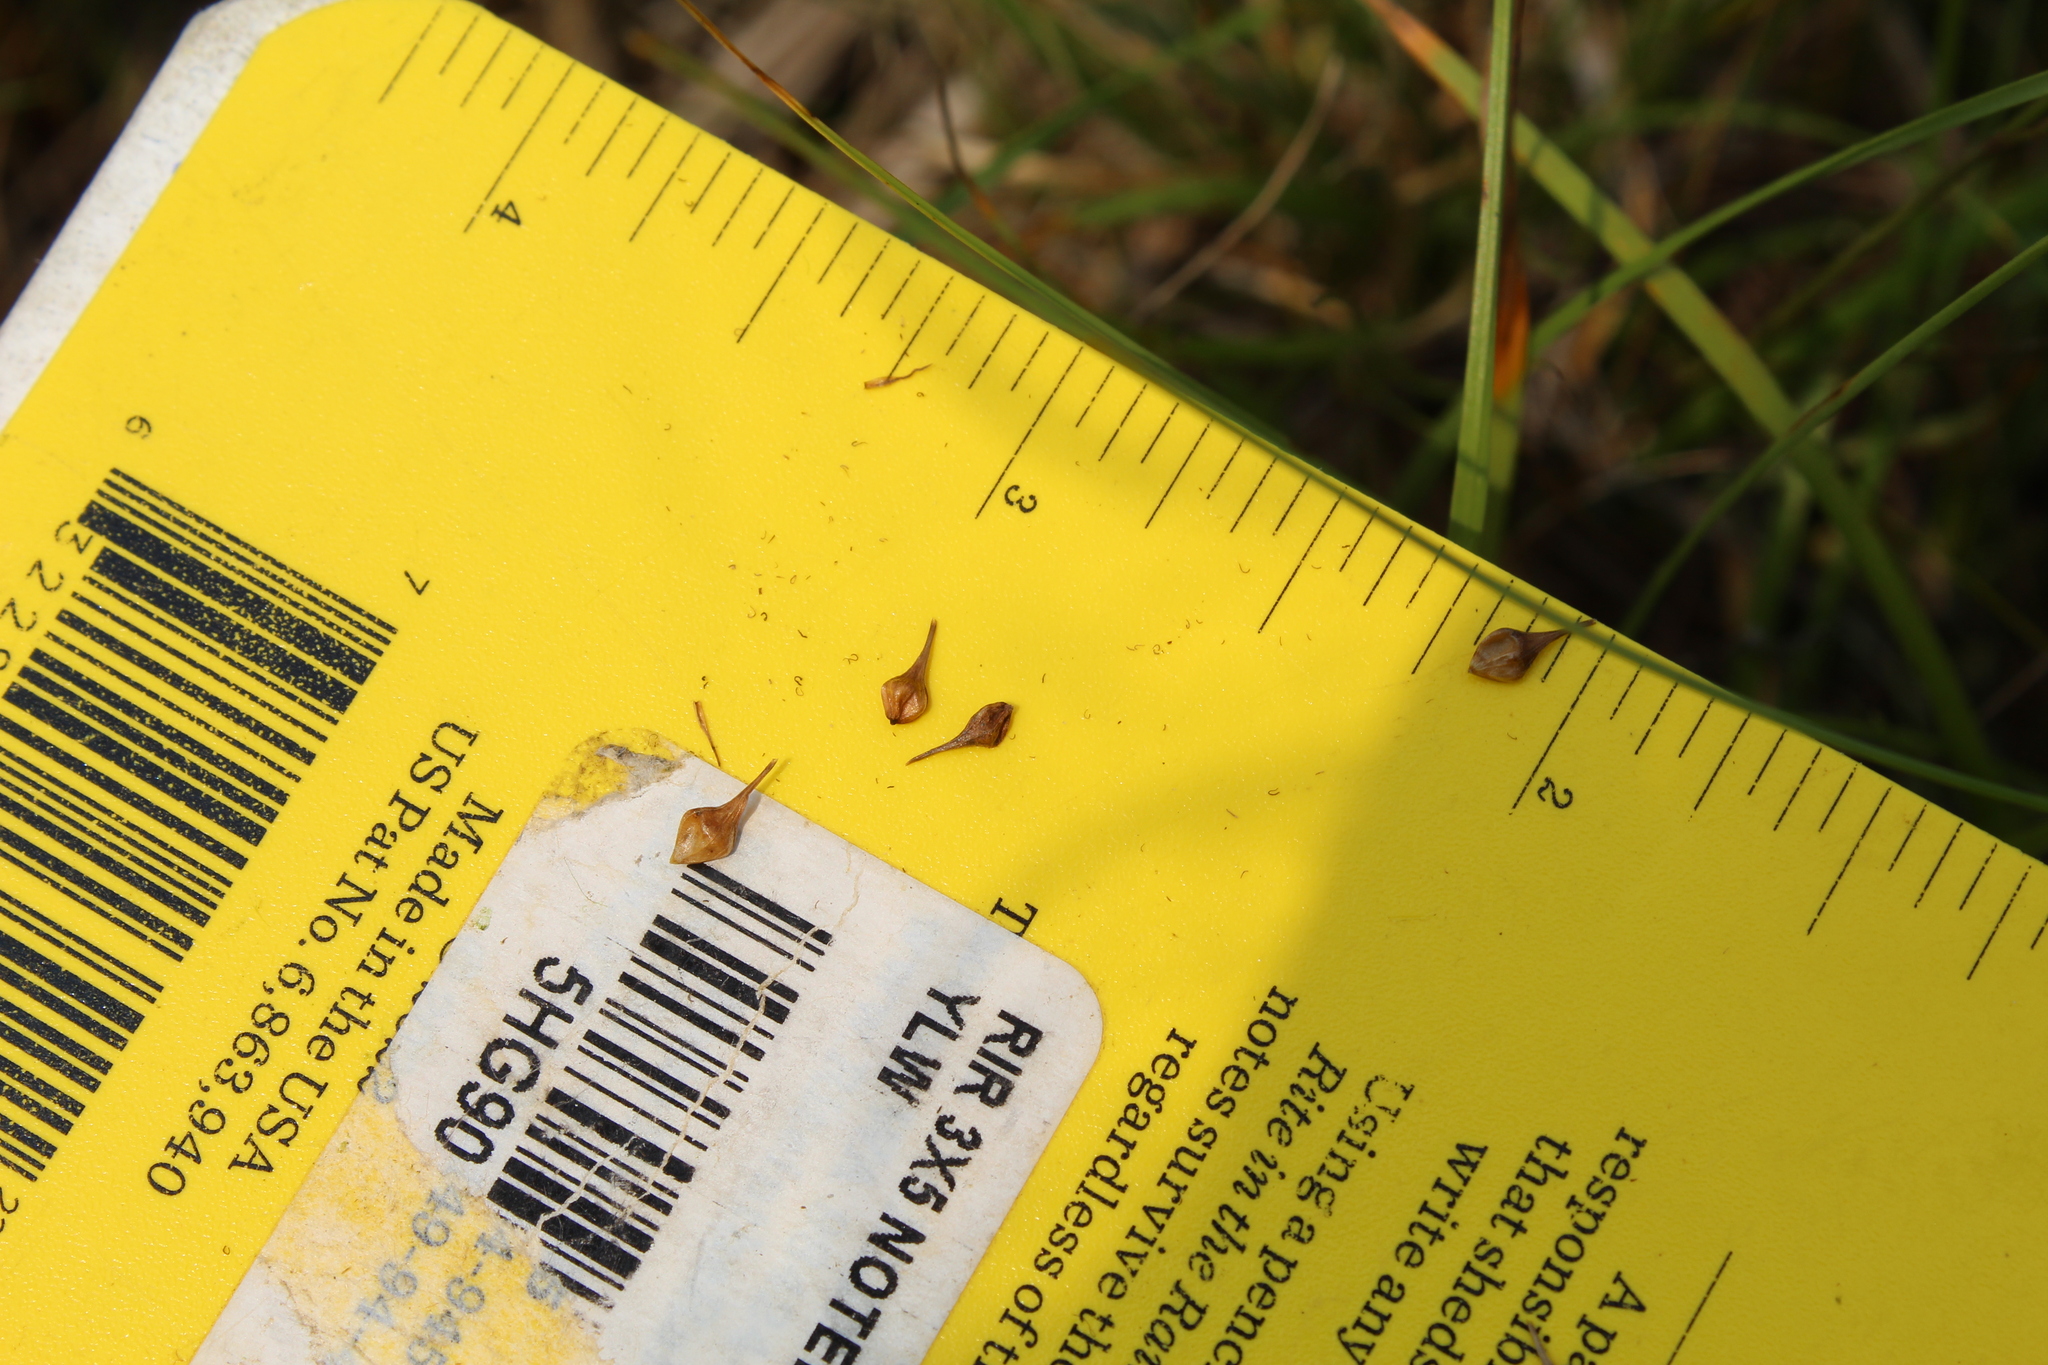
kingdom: Plantae
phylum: Tracheophyta
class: Liliopsida
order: Poales
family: Cyperaceae
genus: Carex
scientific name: Carex lurida
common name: Sallow sedge
